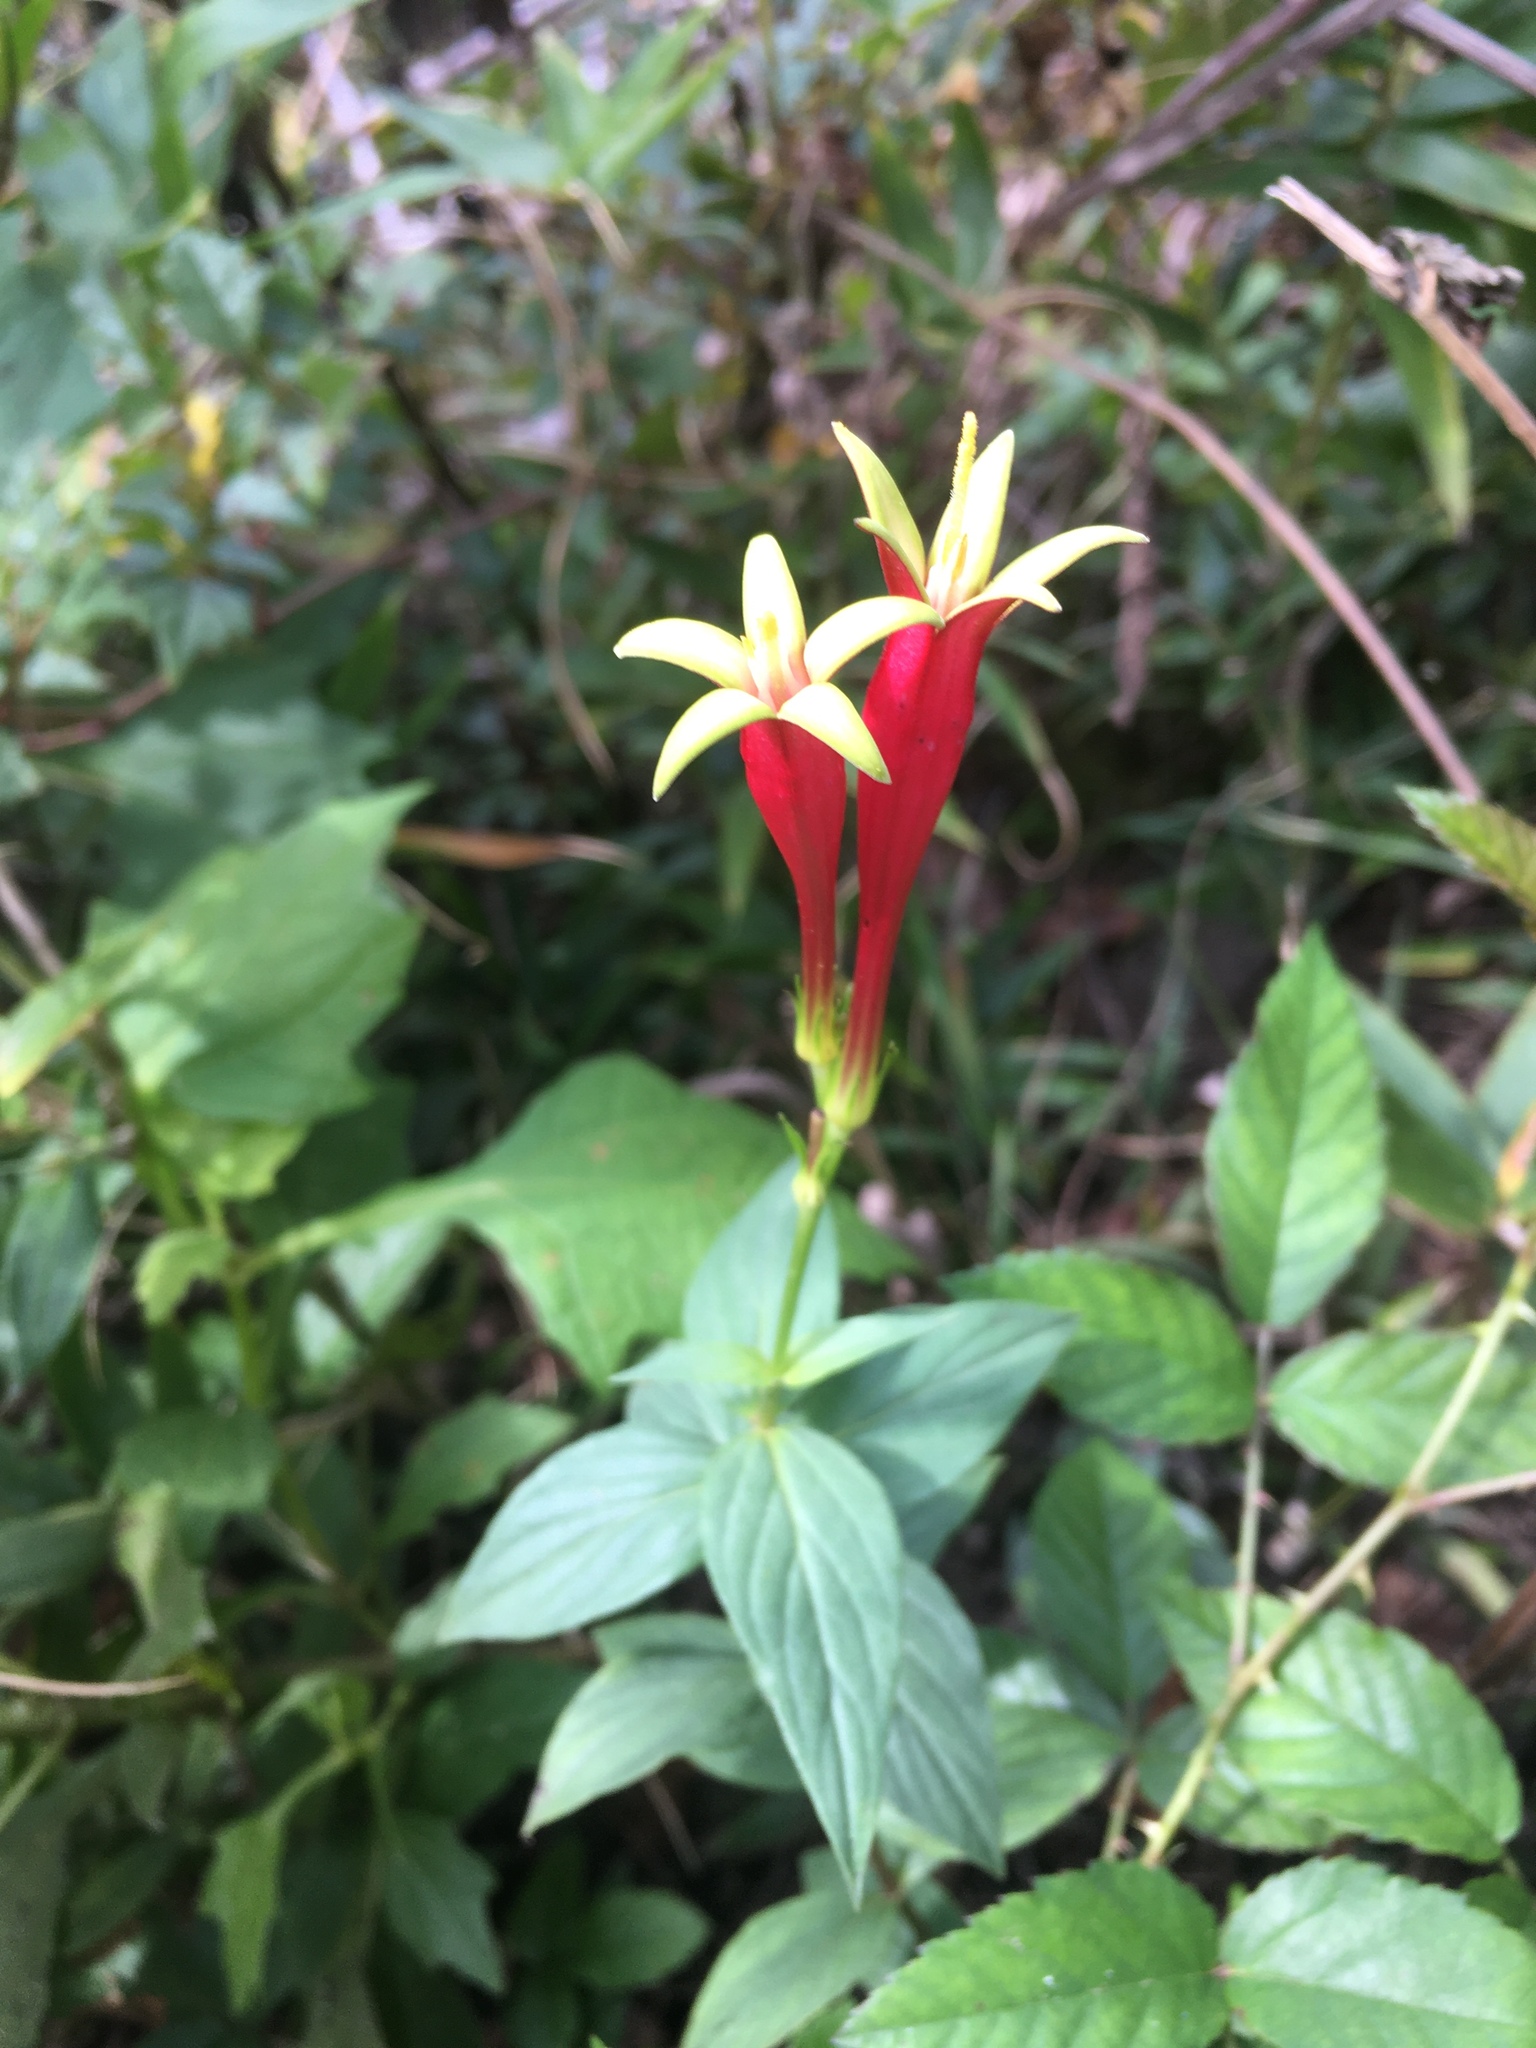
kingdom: Plantae
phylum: Tracheophyta
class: Magnoliopsida
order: Gentianales
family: Loganiaceae
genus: Spigelia
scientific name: Spigelia marilandica
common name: Indian-pink
